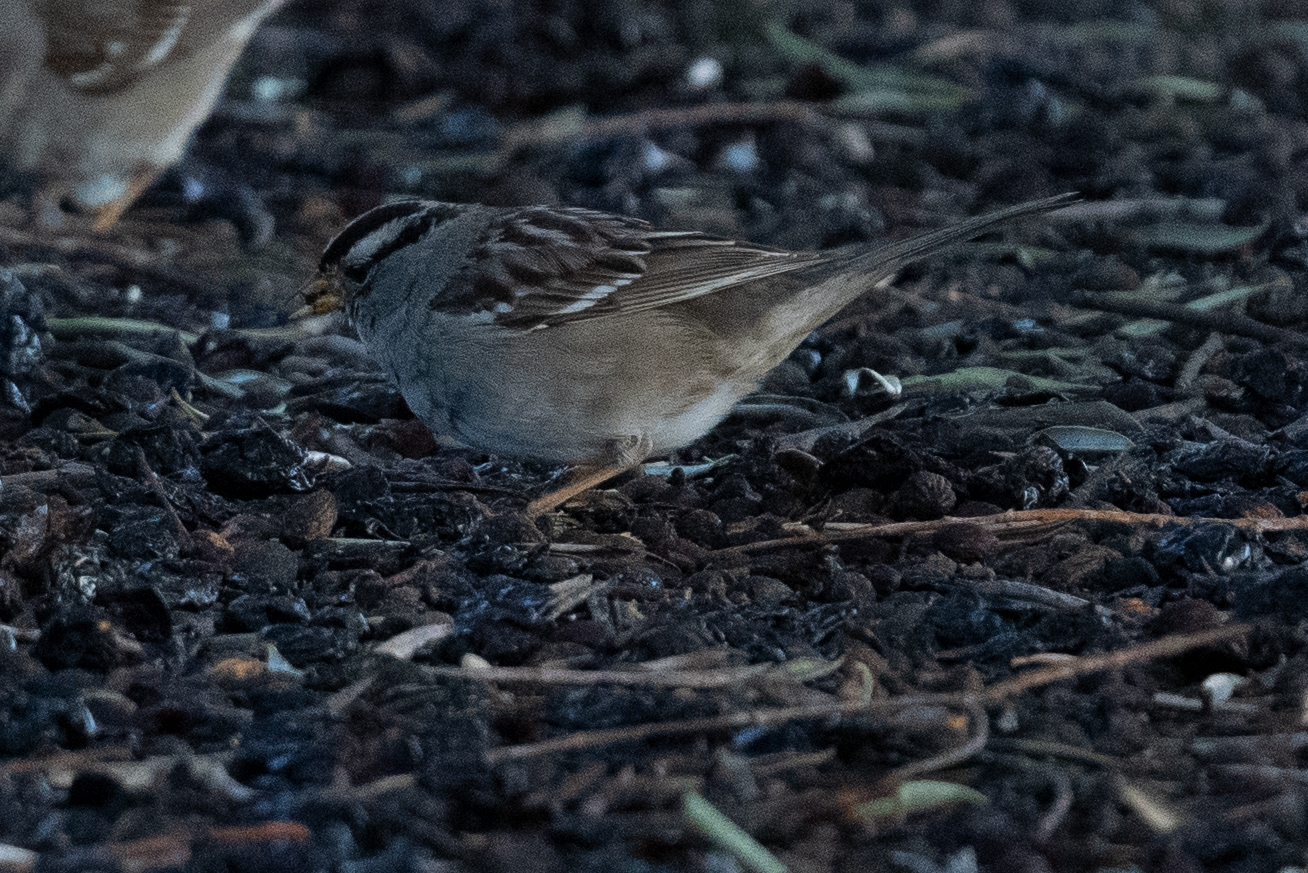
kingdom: Animalia
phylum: Chordata
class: Aves
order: Passeriformes
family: Passerellidae
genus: Zonotrichia
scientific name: Zonotrichia leucophrys
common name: White-crowned sparrow
